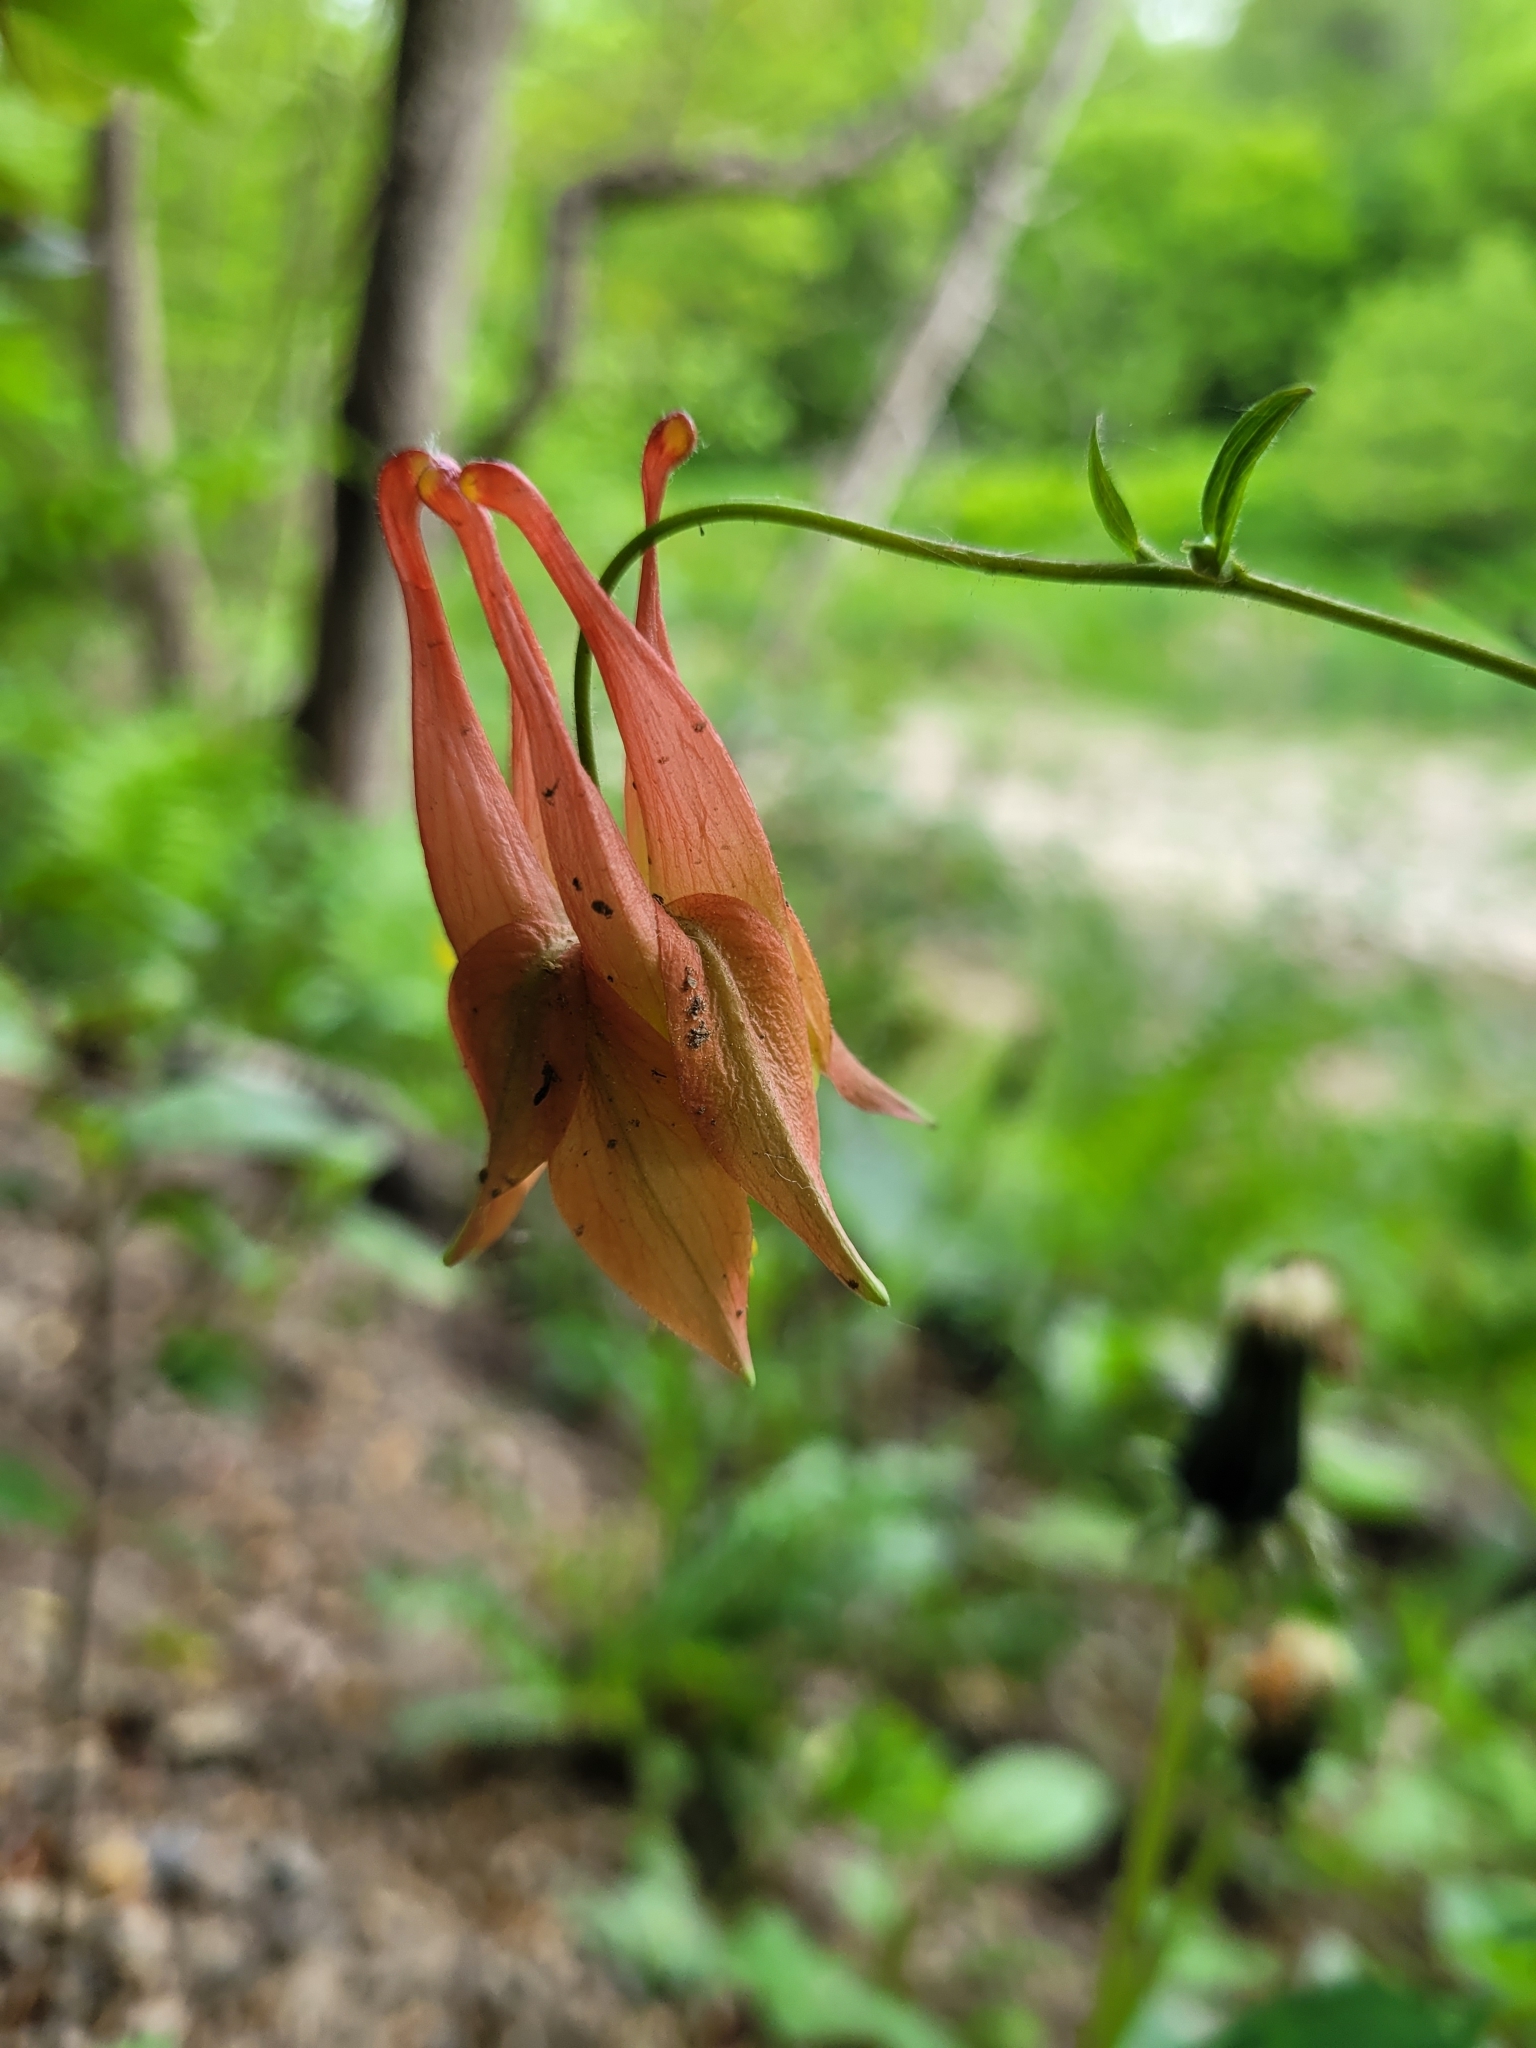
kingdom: Plantae
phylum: Tracheophyta
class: Magnoliopsida
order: Ranunculales
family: Ranunculaceae
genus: Aquilegia
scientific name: Aquilegia canadensis
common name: American columbine
